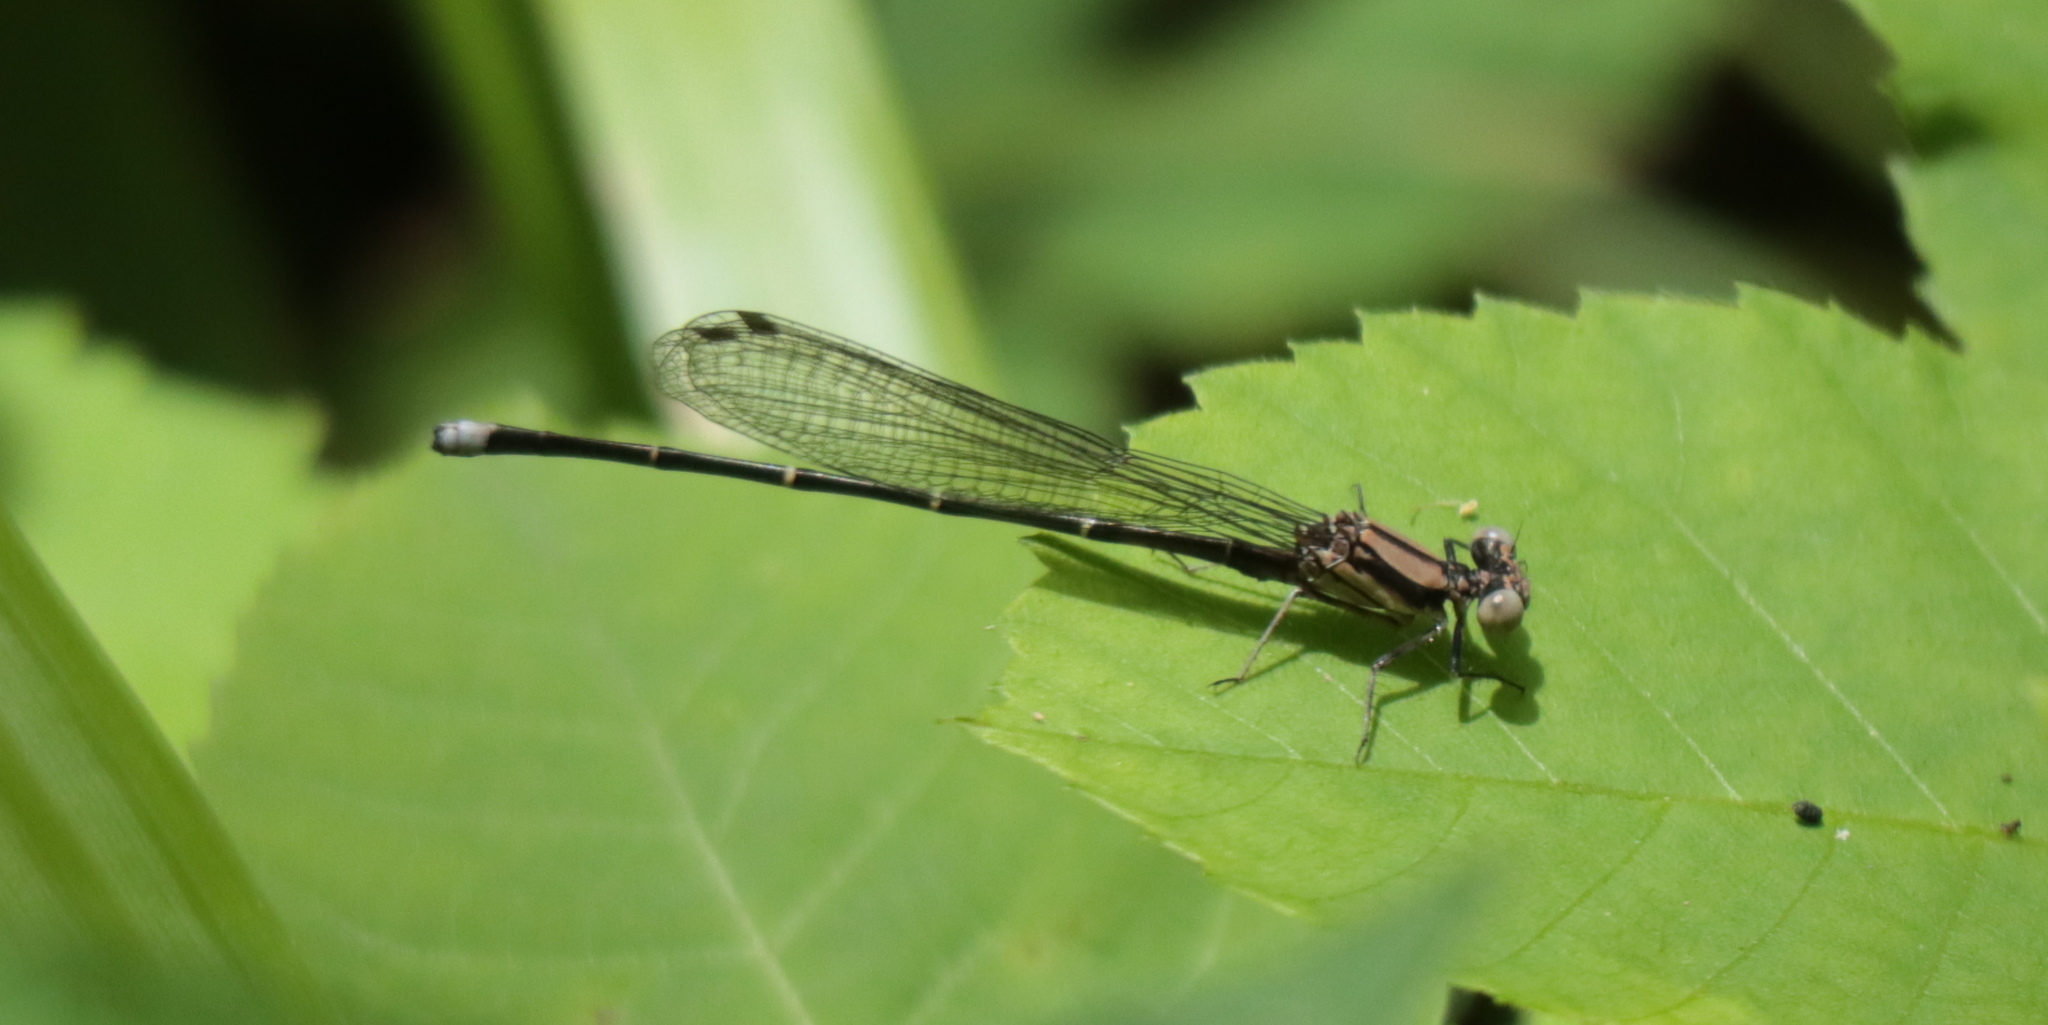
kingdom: Animalia
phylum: Arthropoda
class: Insecta
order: Odonata
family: Coenagrionidae
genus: Argia
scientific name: Argia tibialis
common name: Blue-tipped dancer
